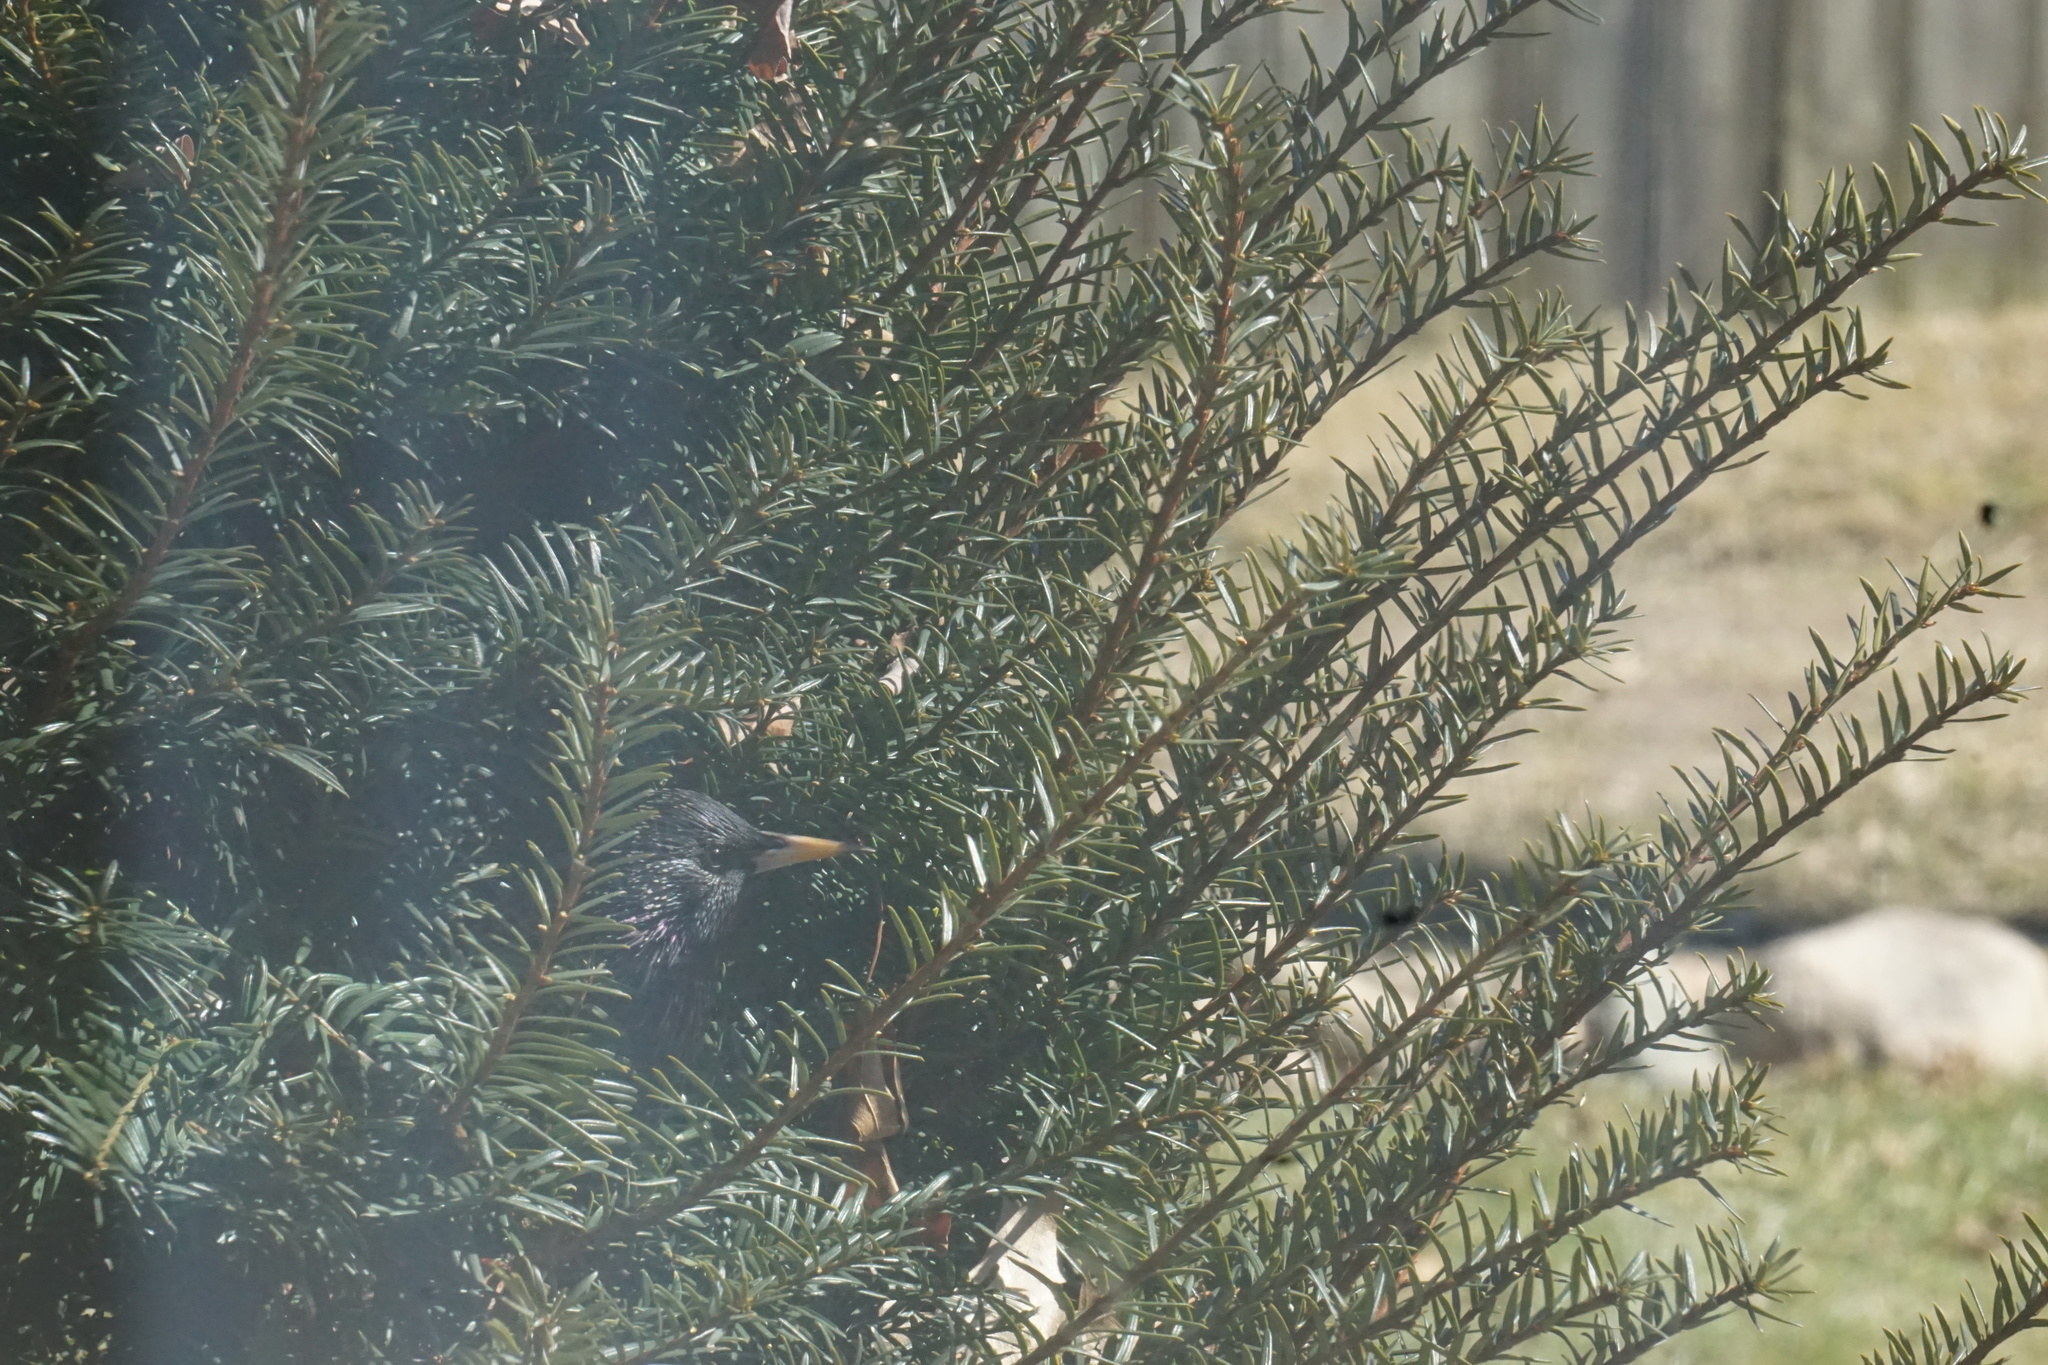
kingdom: Animalia
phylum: Chordata
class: Aves
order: Passeriformes
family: Sturnidae
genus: Sturnus
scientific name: Sturnus vulgaris
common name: Common starling
